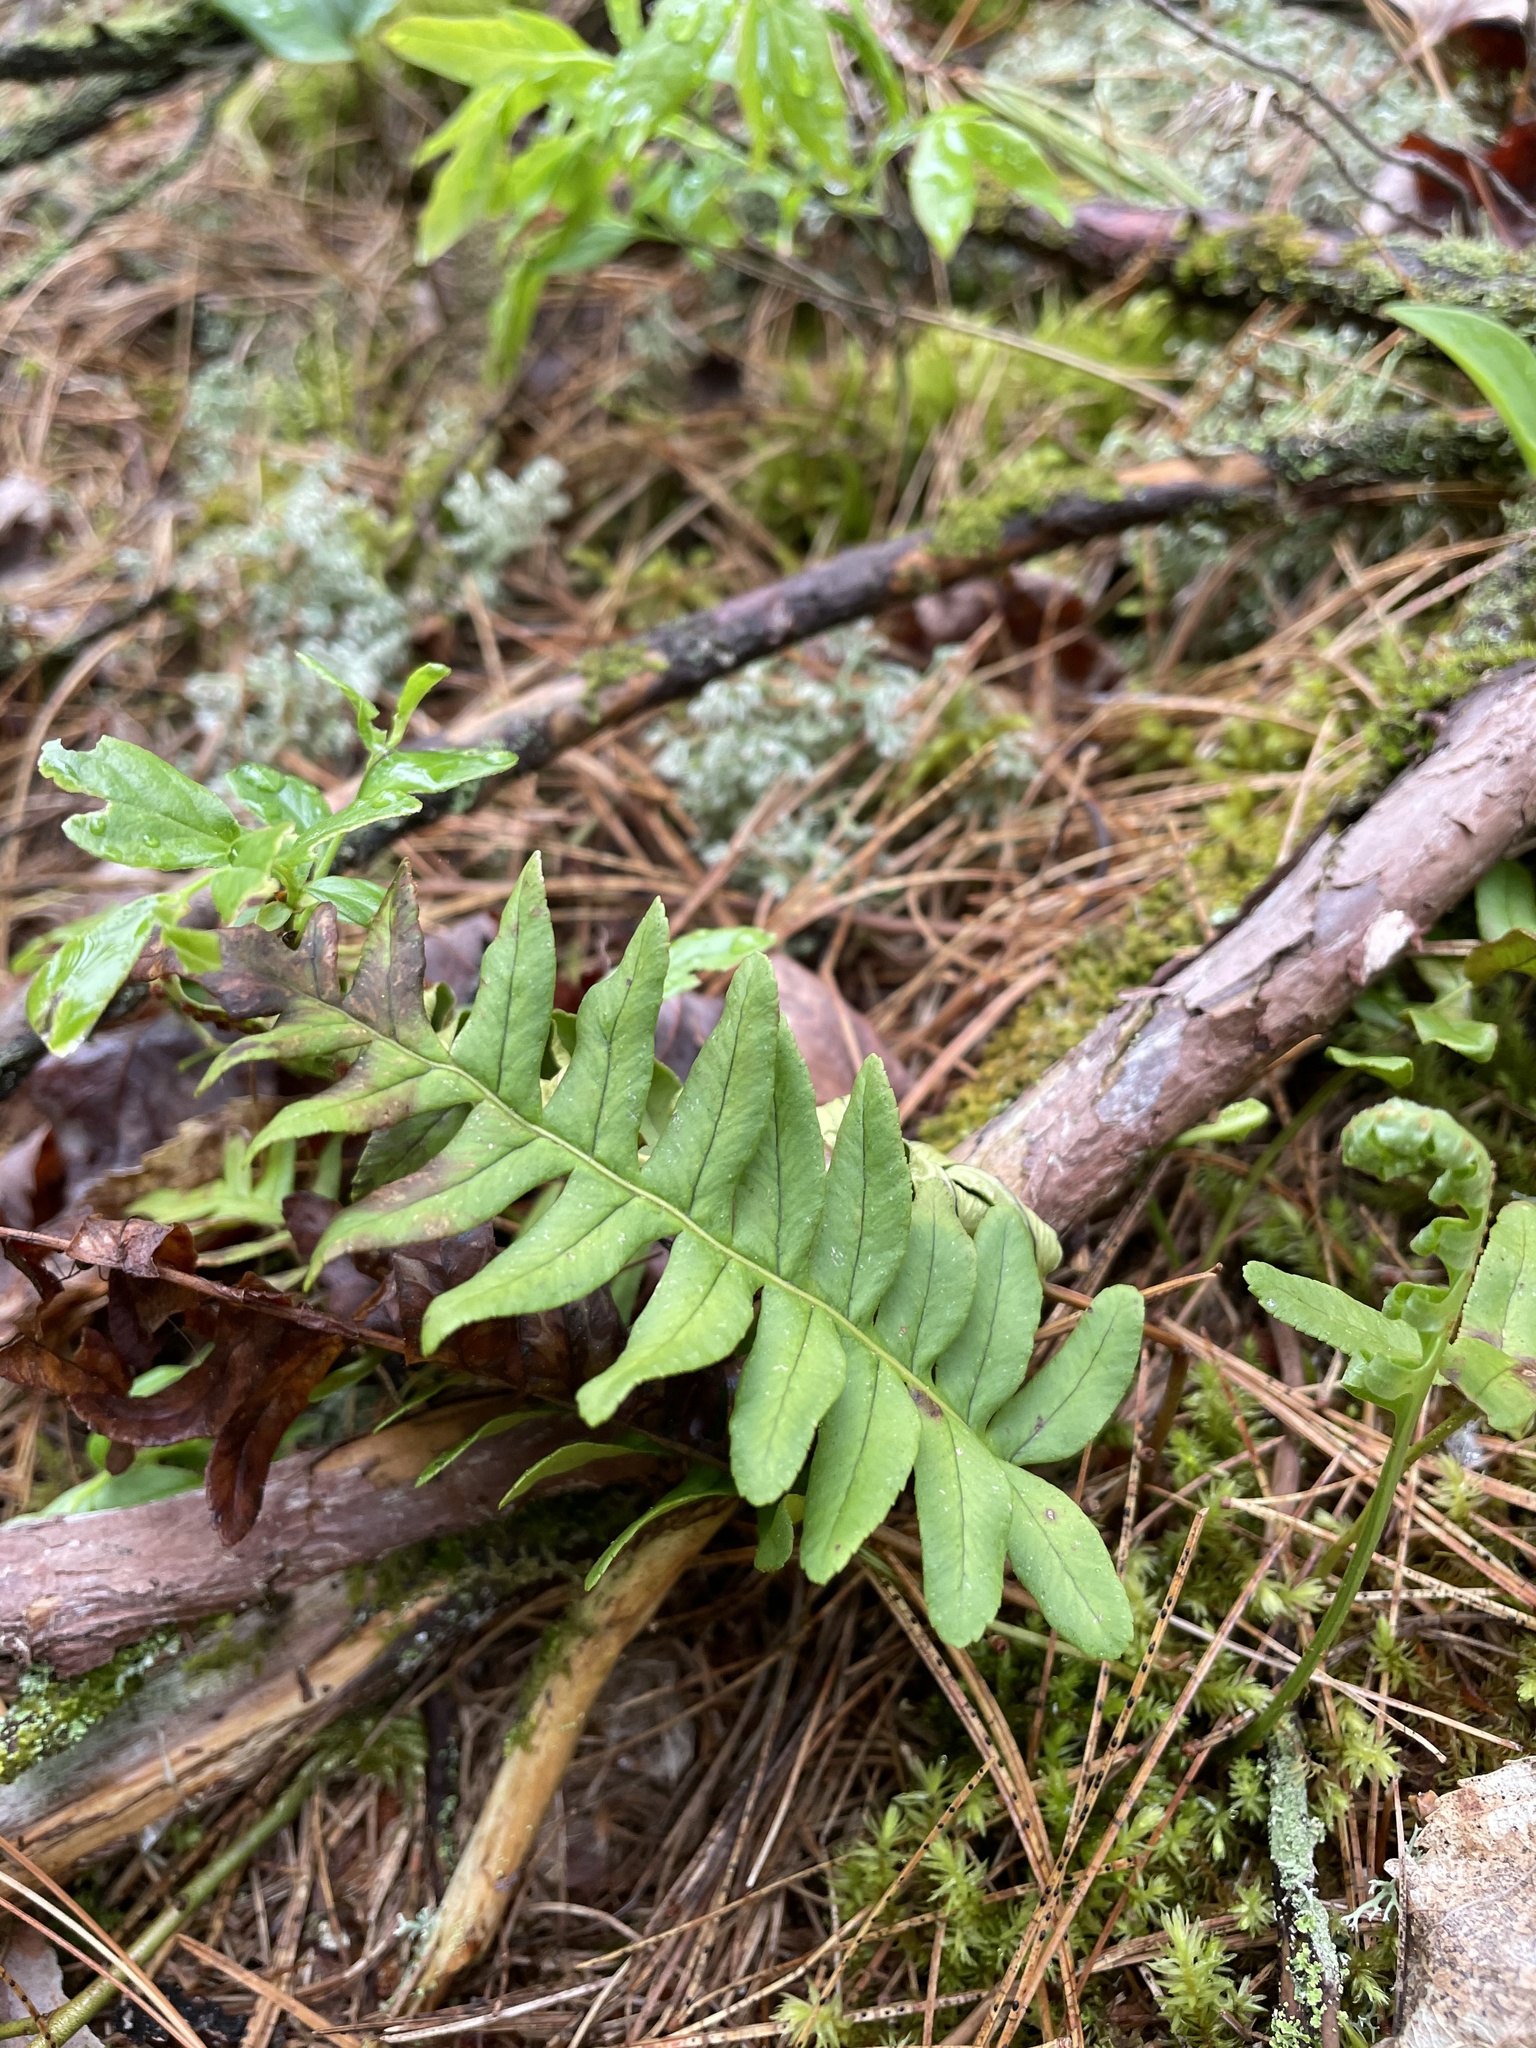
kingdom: Plantae
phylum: Tracheophyta
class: Polypodiopsida
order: Polypodiales
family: Polypodiaceae
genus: Polypodium
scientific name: Polypodium virginianum
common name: American wall fern
